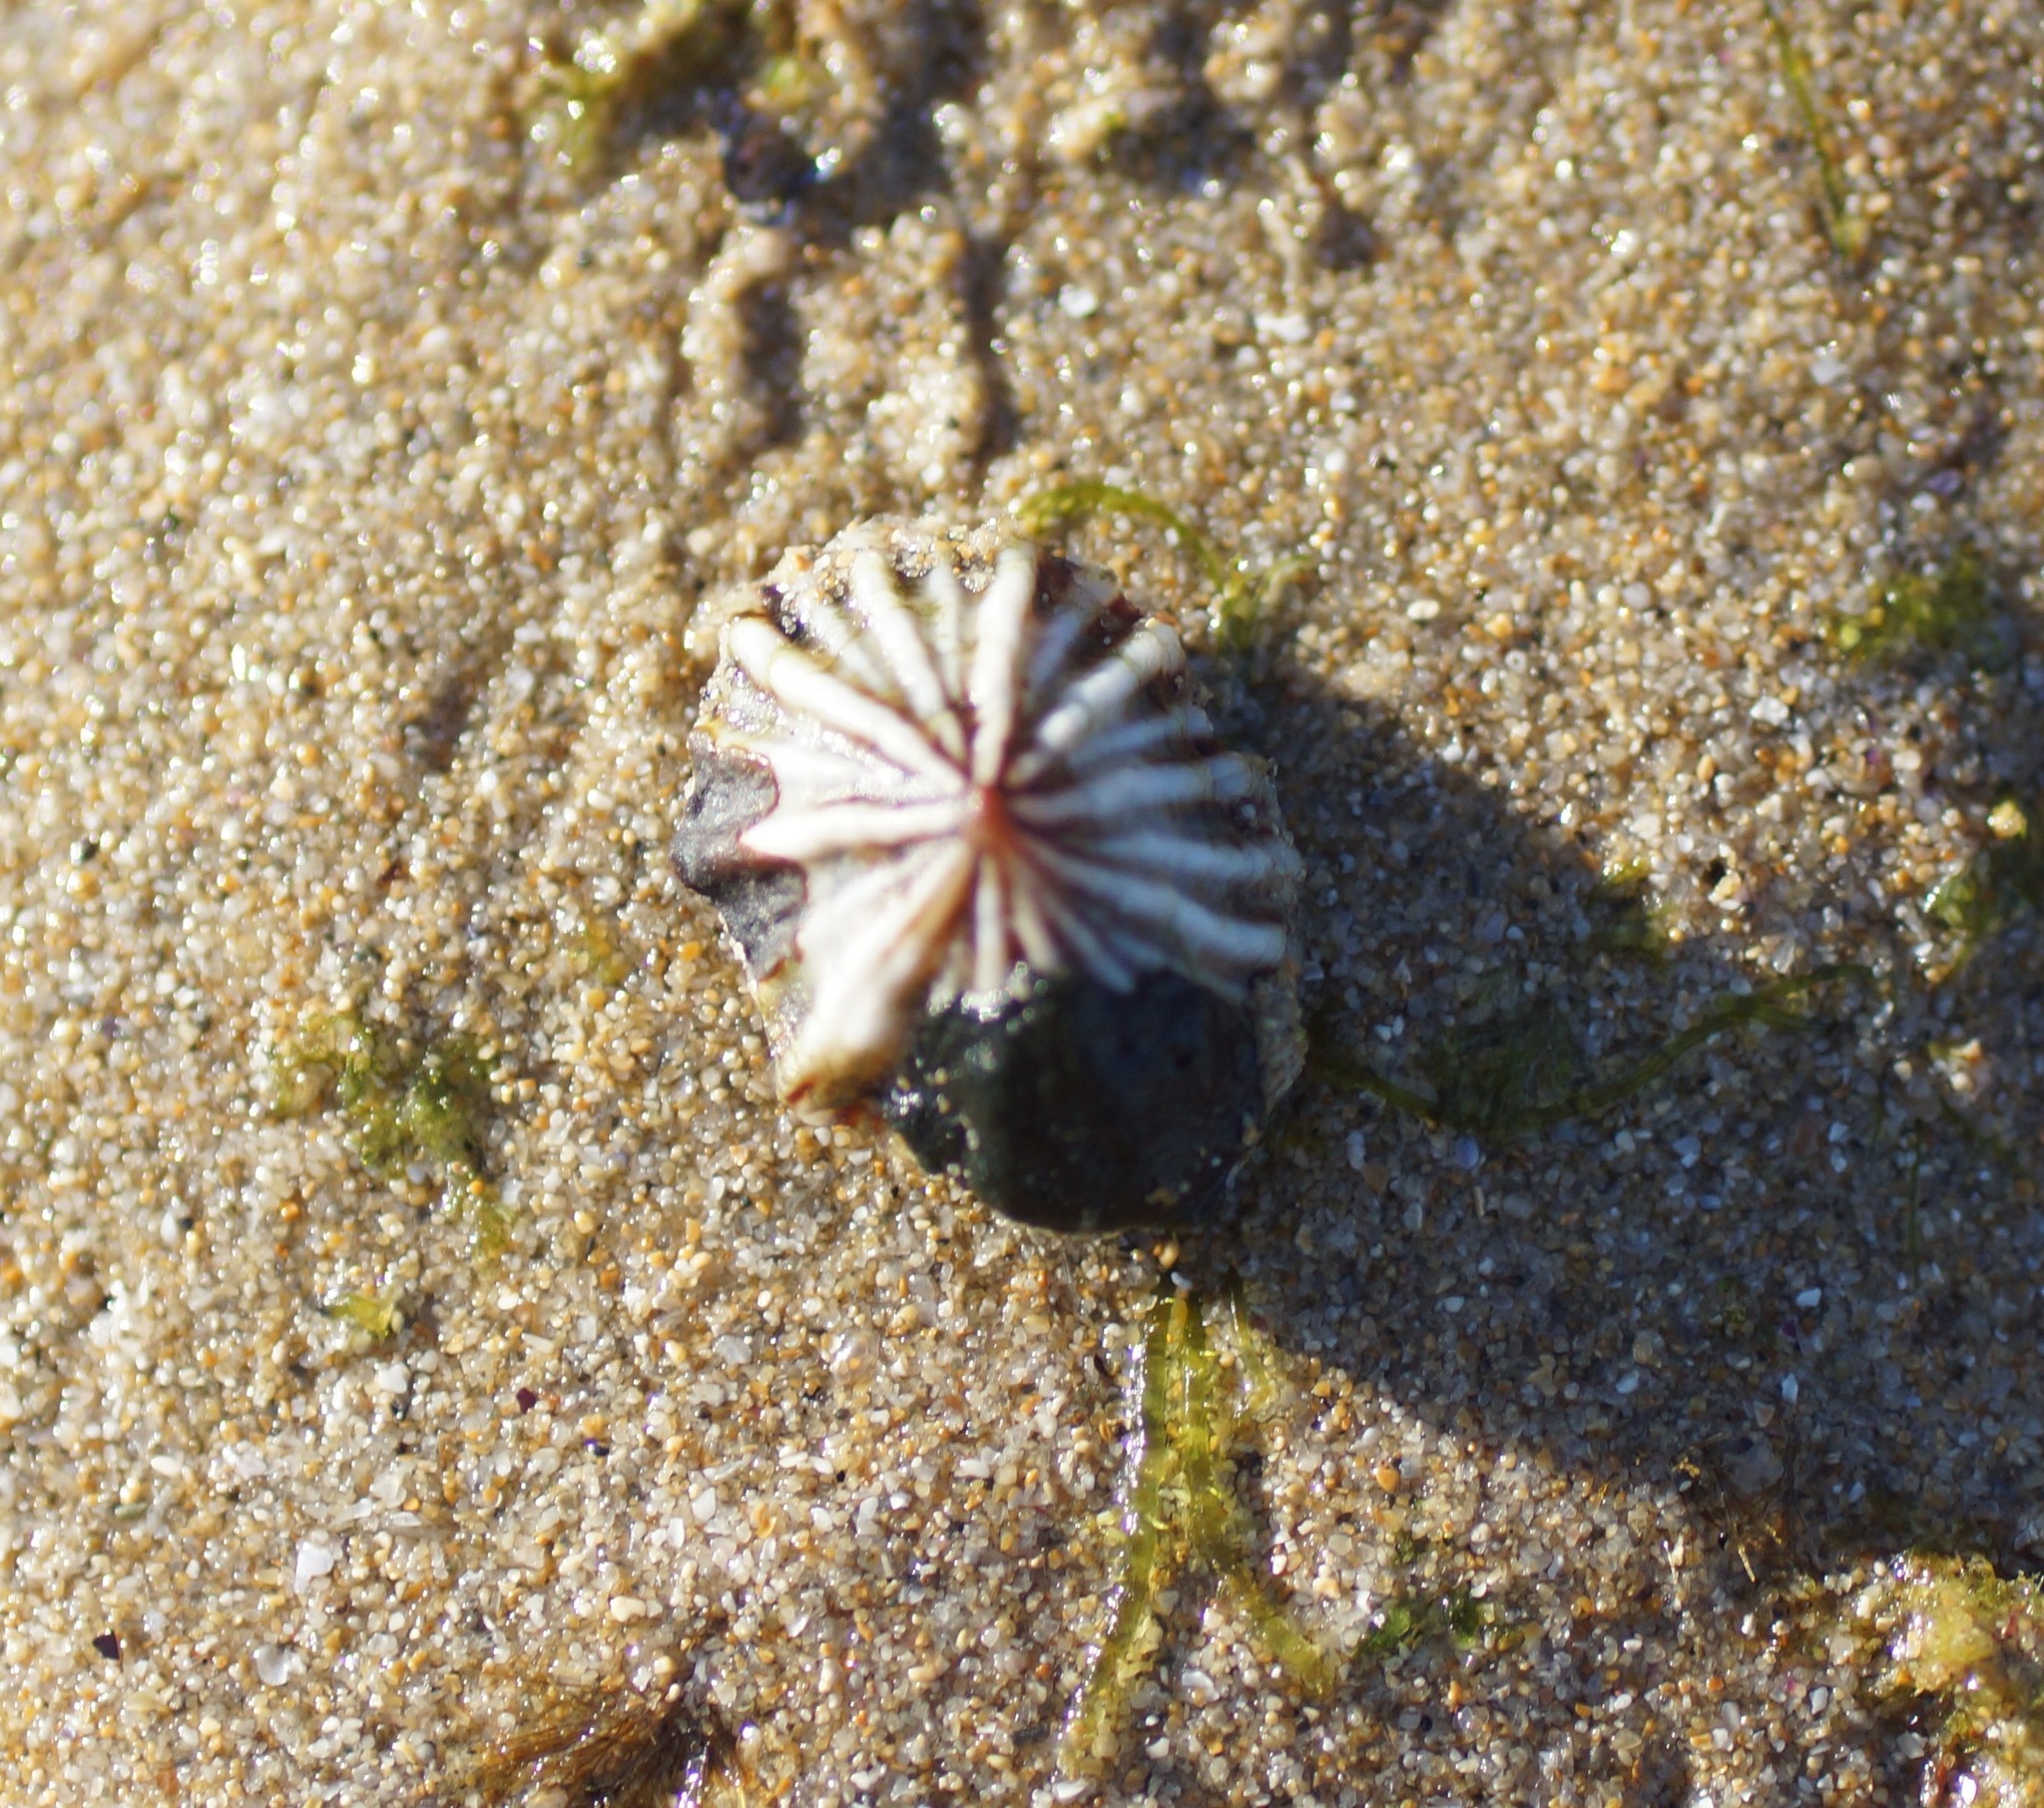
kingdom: Animalia
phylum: Mollusca
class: Gastropoda
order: Siphonariida
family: Siphonariidae
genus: Siphonaria
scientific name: Siphonaria diemenensis
